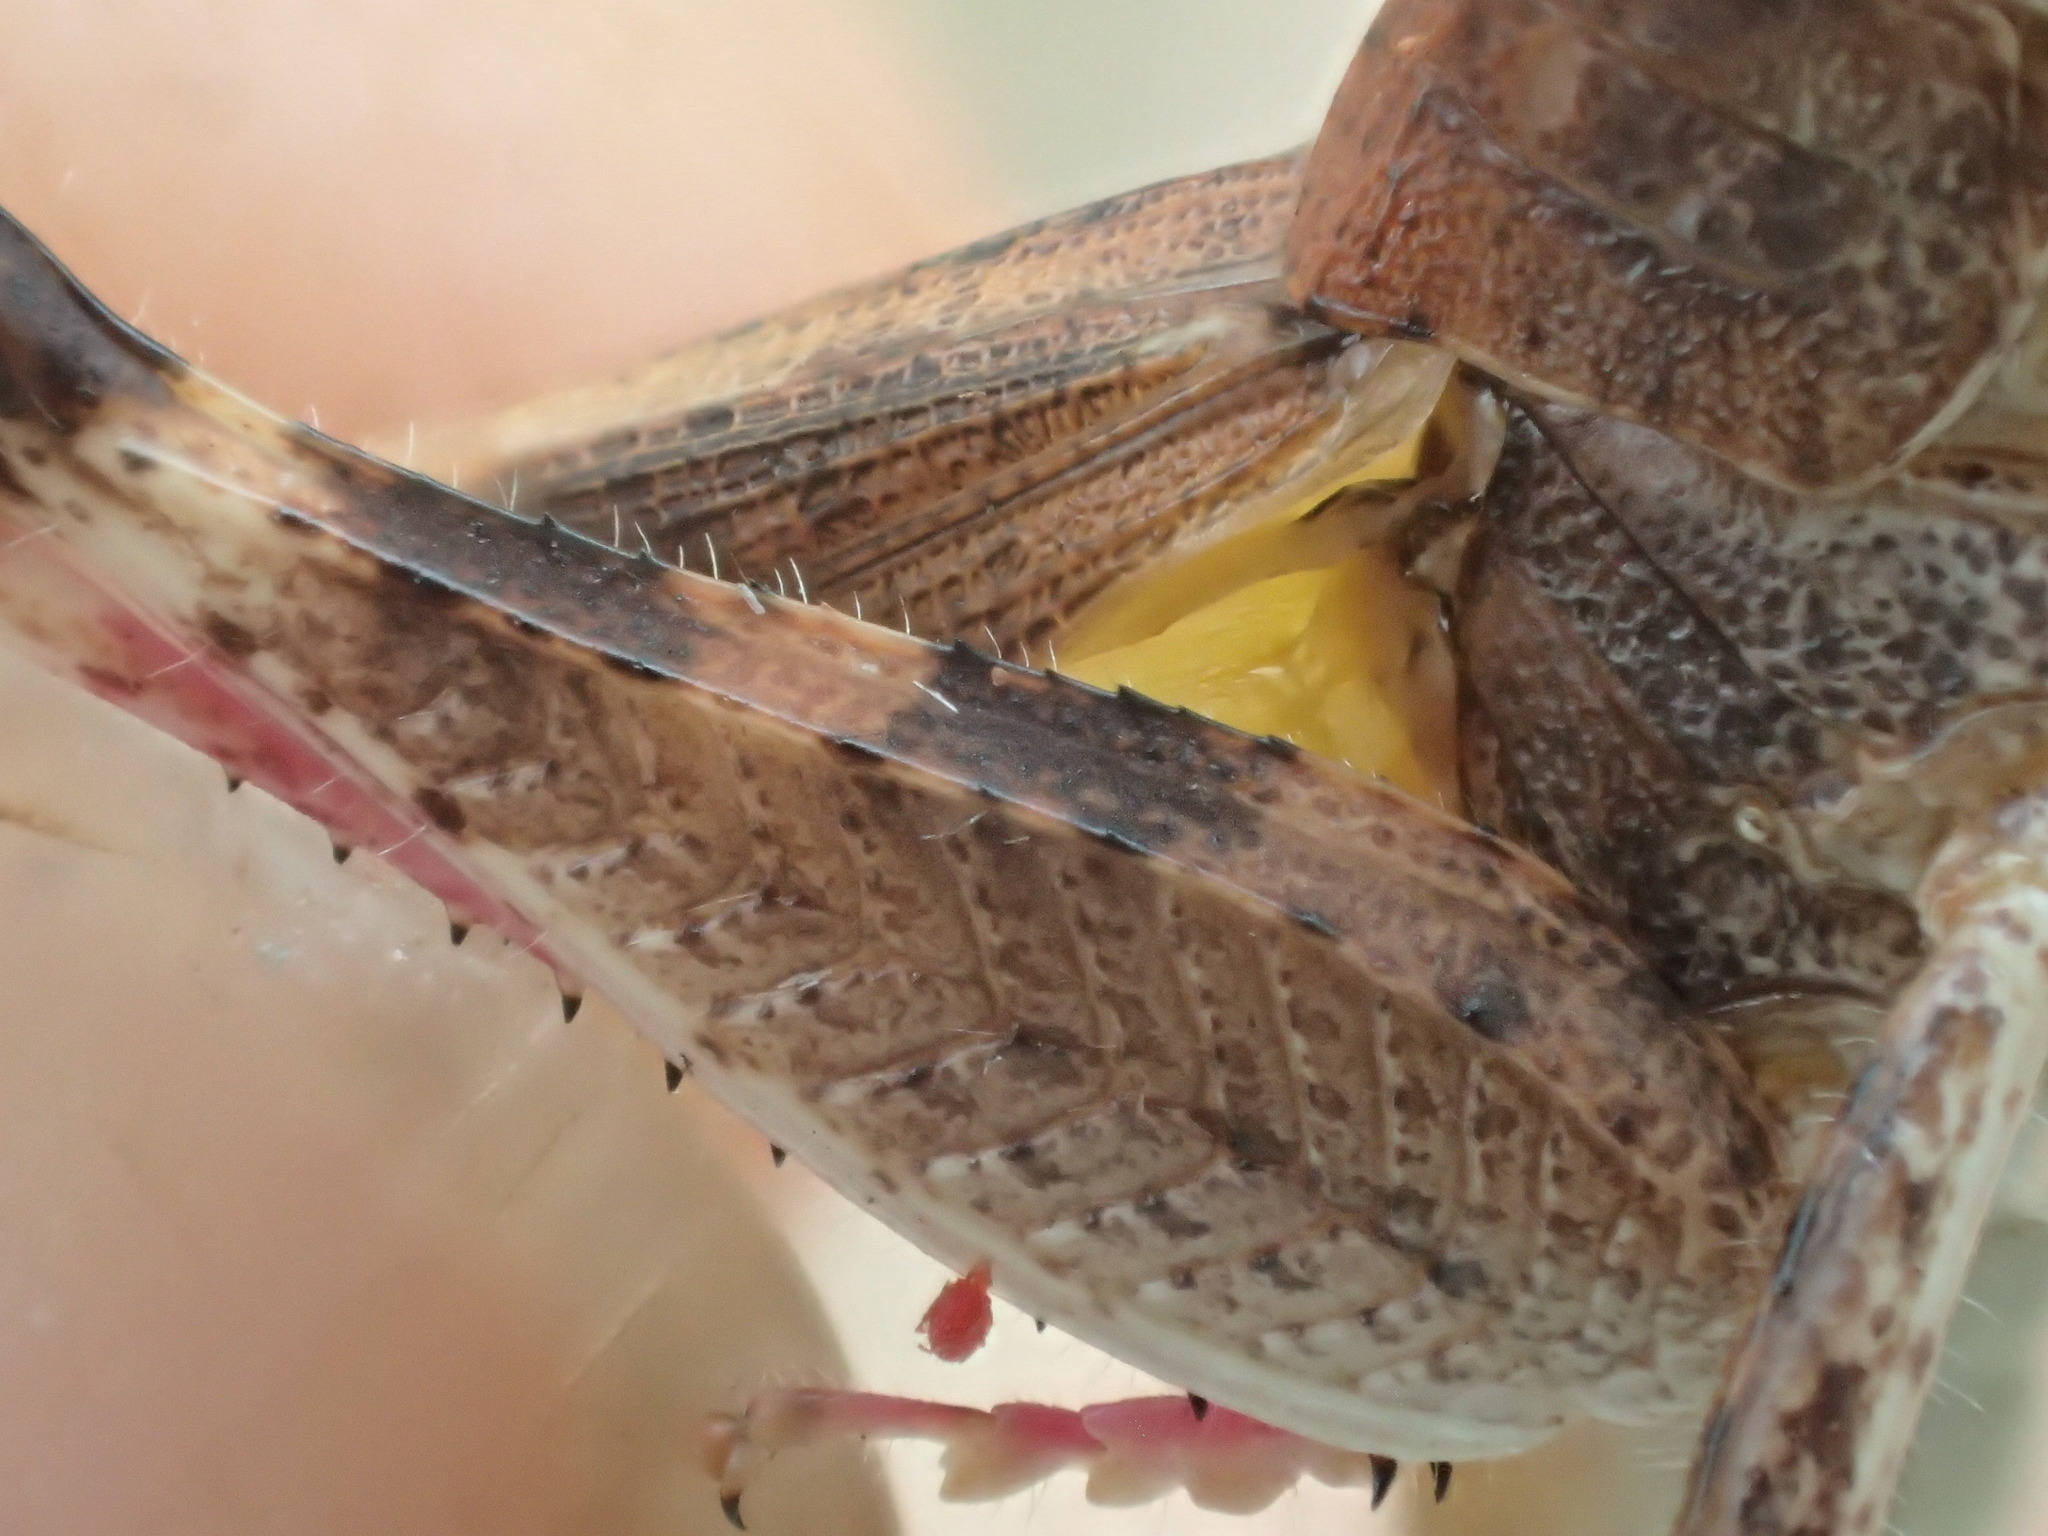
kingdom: Animalia
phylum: Arthropoda
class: Insecta
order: Orthoptera
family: Acrididae
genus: Desertaria
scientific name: Desertaria fasciata
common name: Striped ungee-gungee
